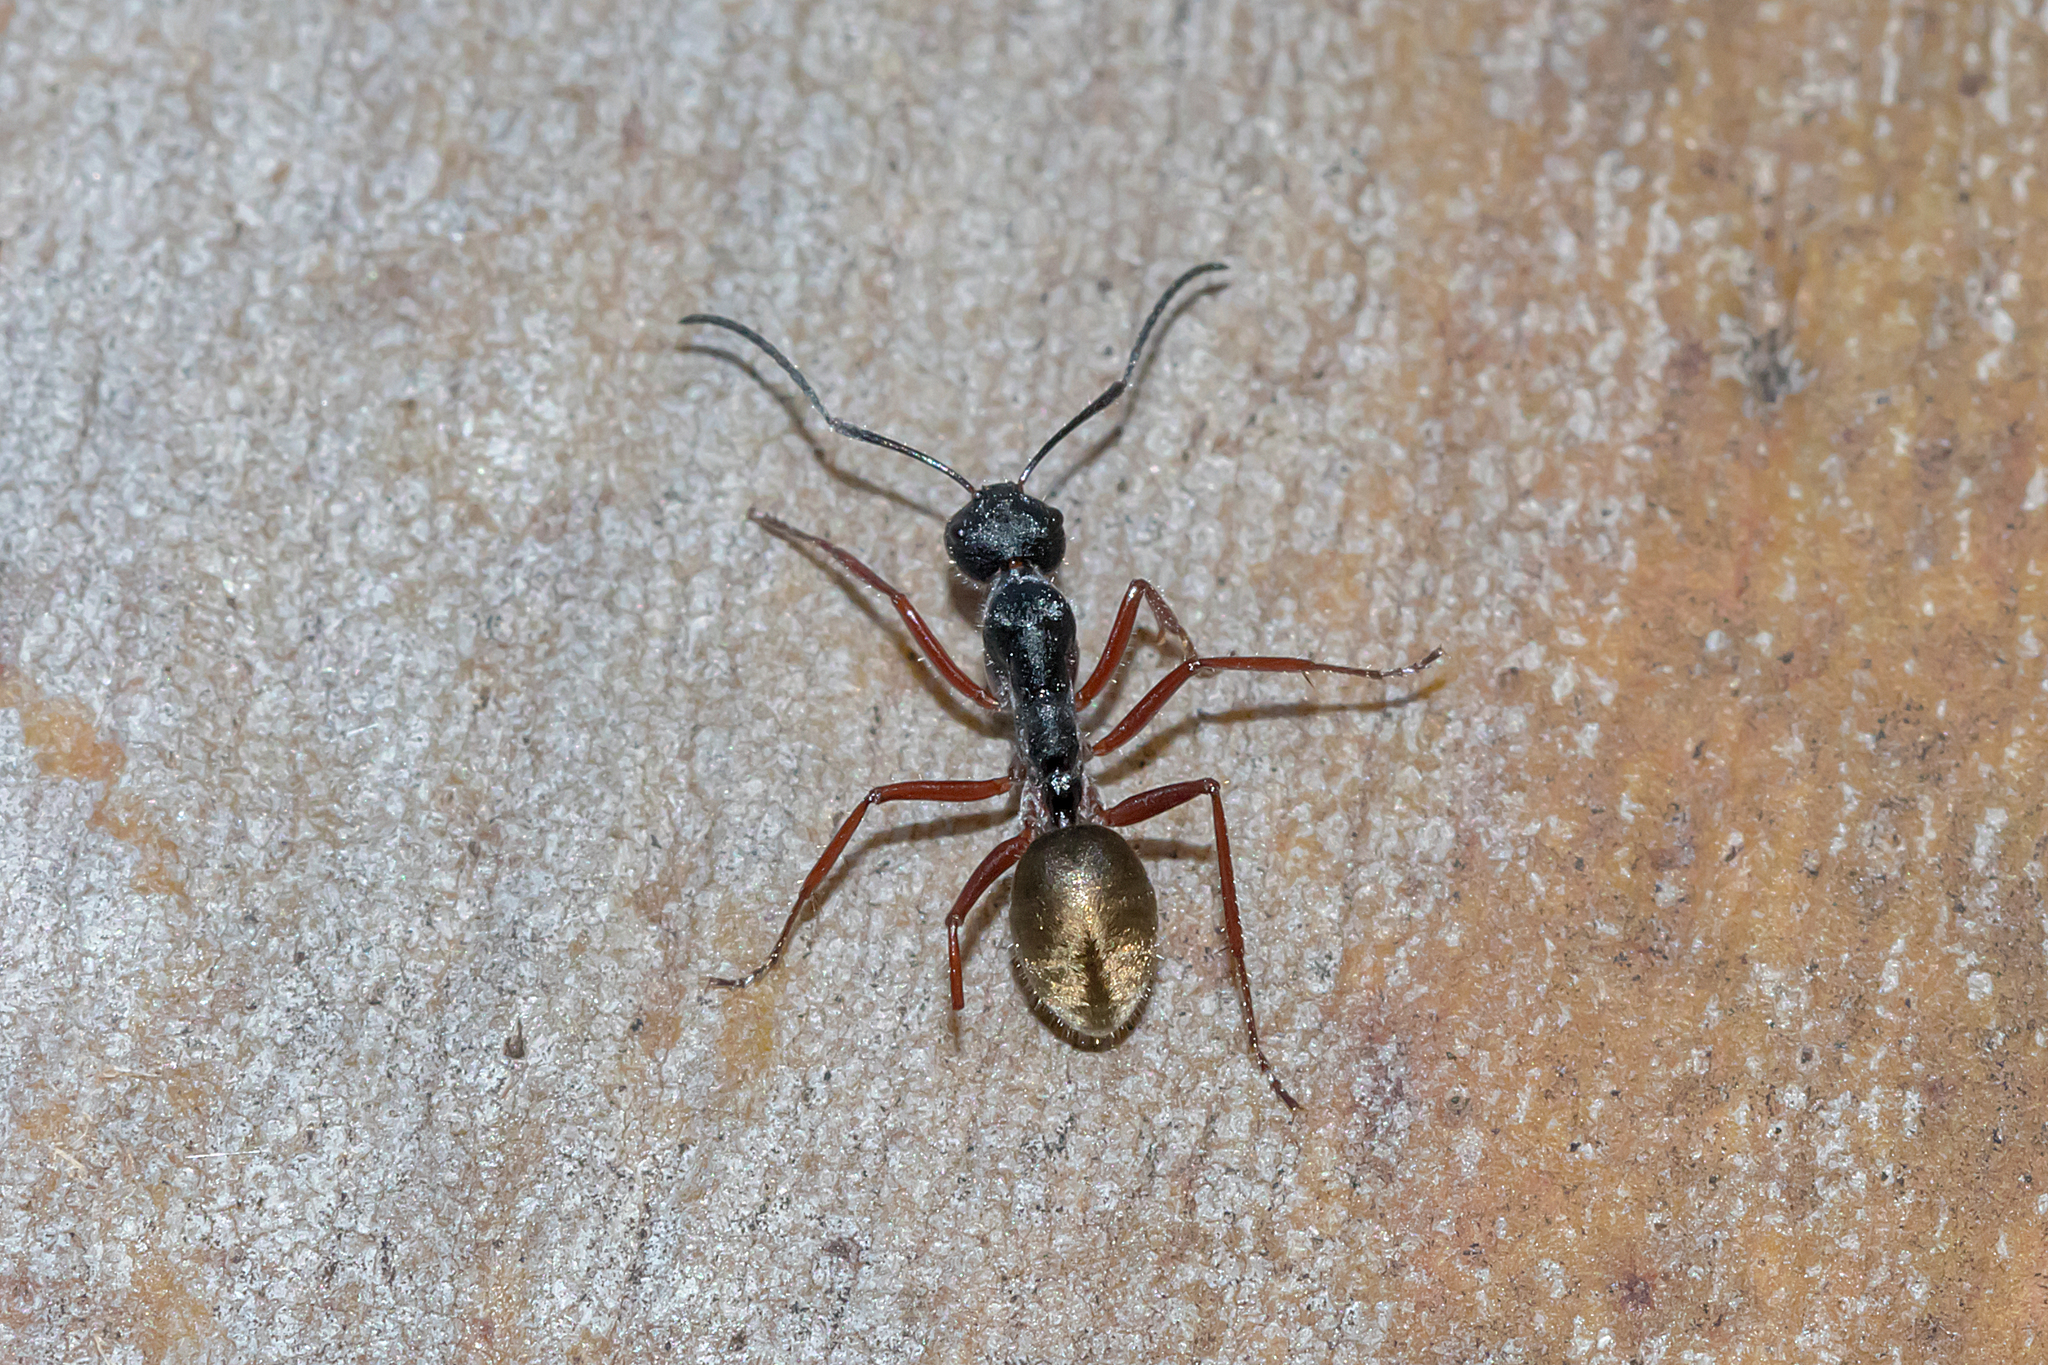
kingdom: Animalia
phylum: Arthropoda
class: Insecta
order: Hymenoptera
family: Formicidae
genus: Camponotus
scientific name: Camponotus suffusus
